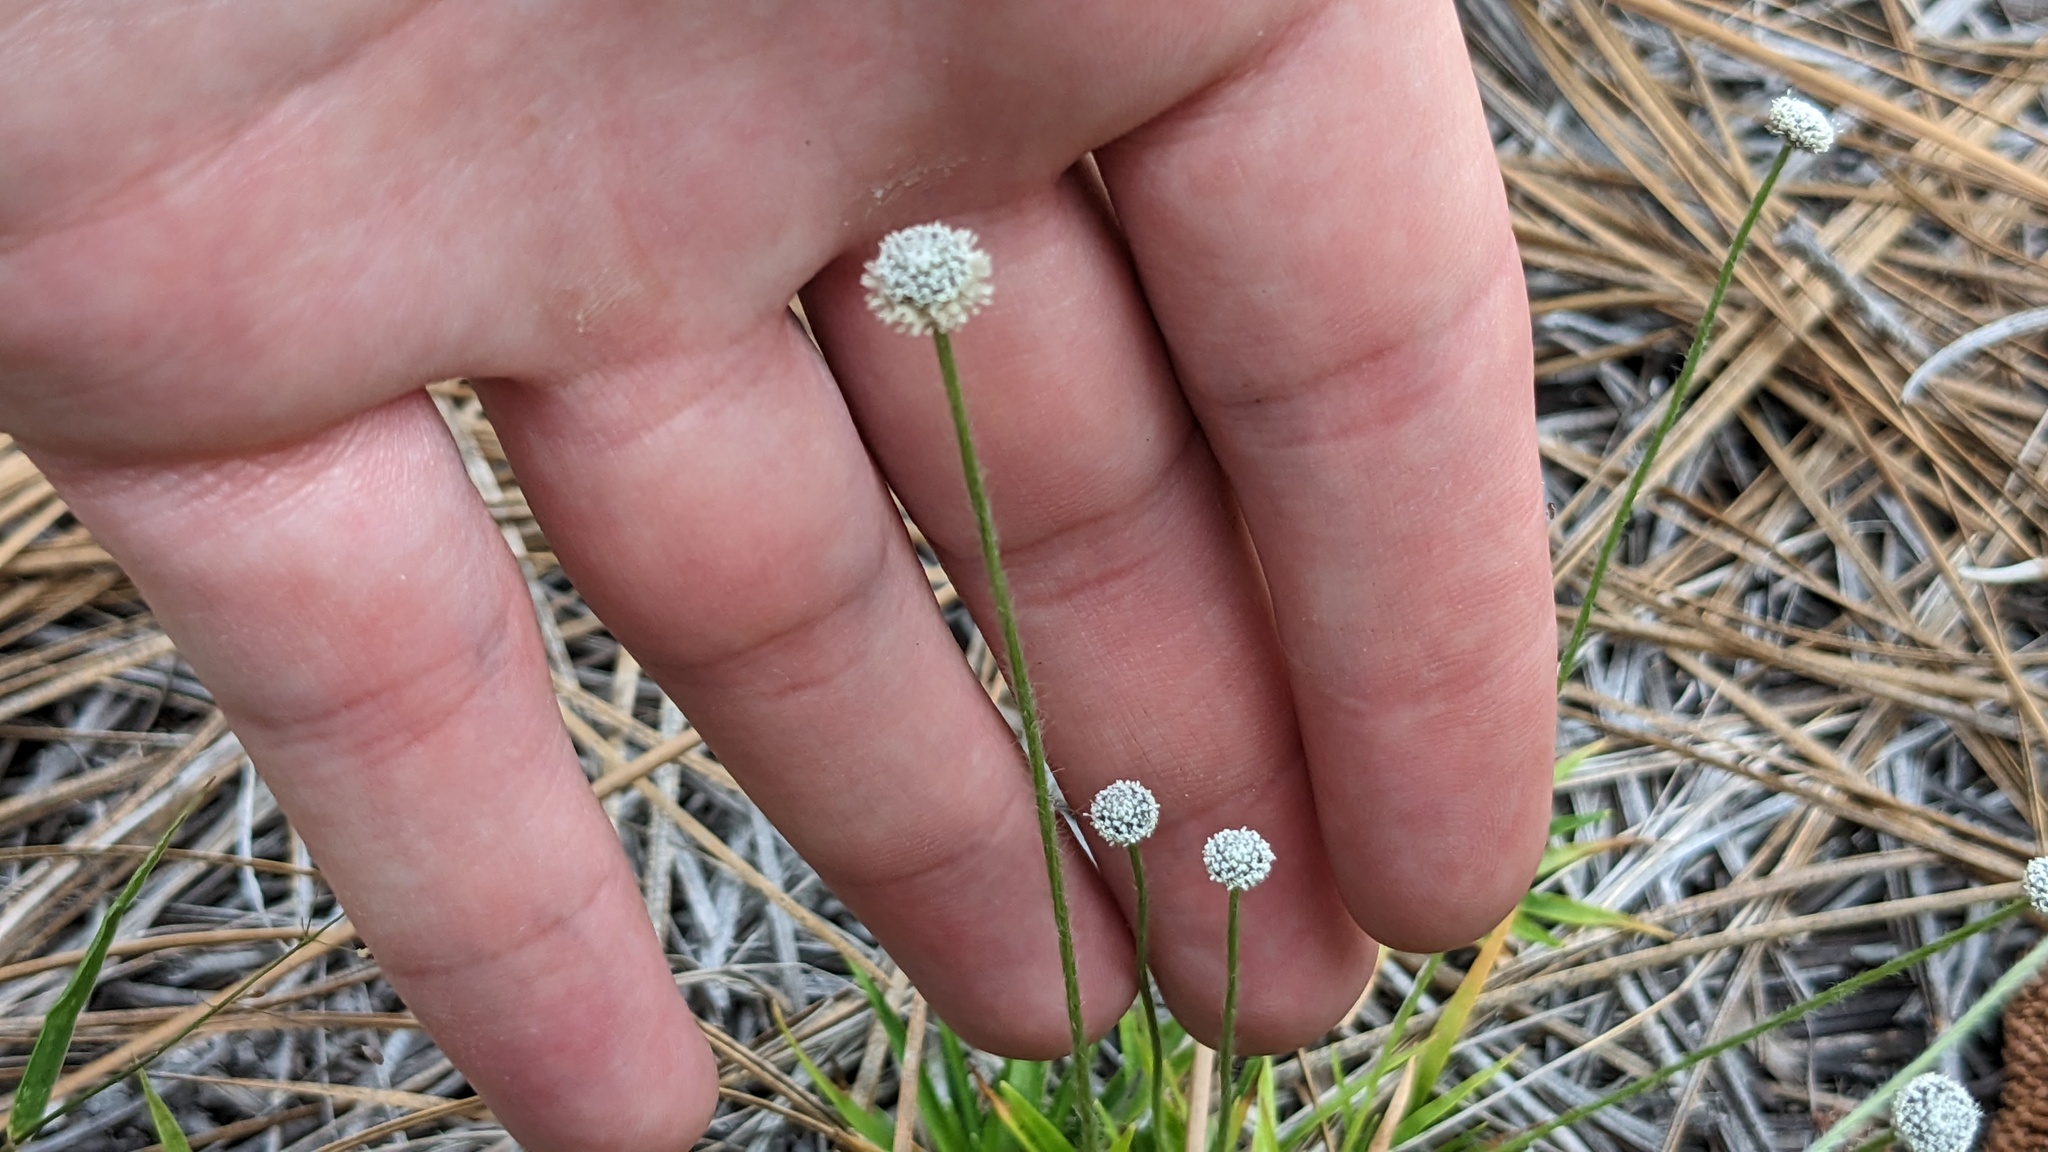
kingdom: Plantae
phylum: Tracheophyta
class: Liliopsida
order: Poales
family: Eriocaulaceae
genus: Paepalanthus
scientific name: Paepalanthus anceps
